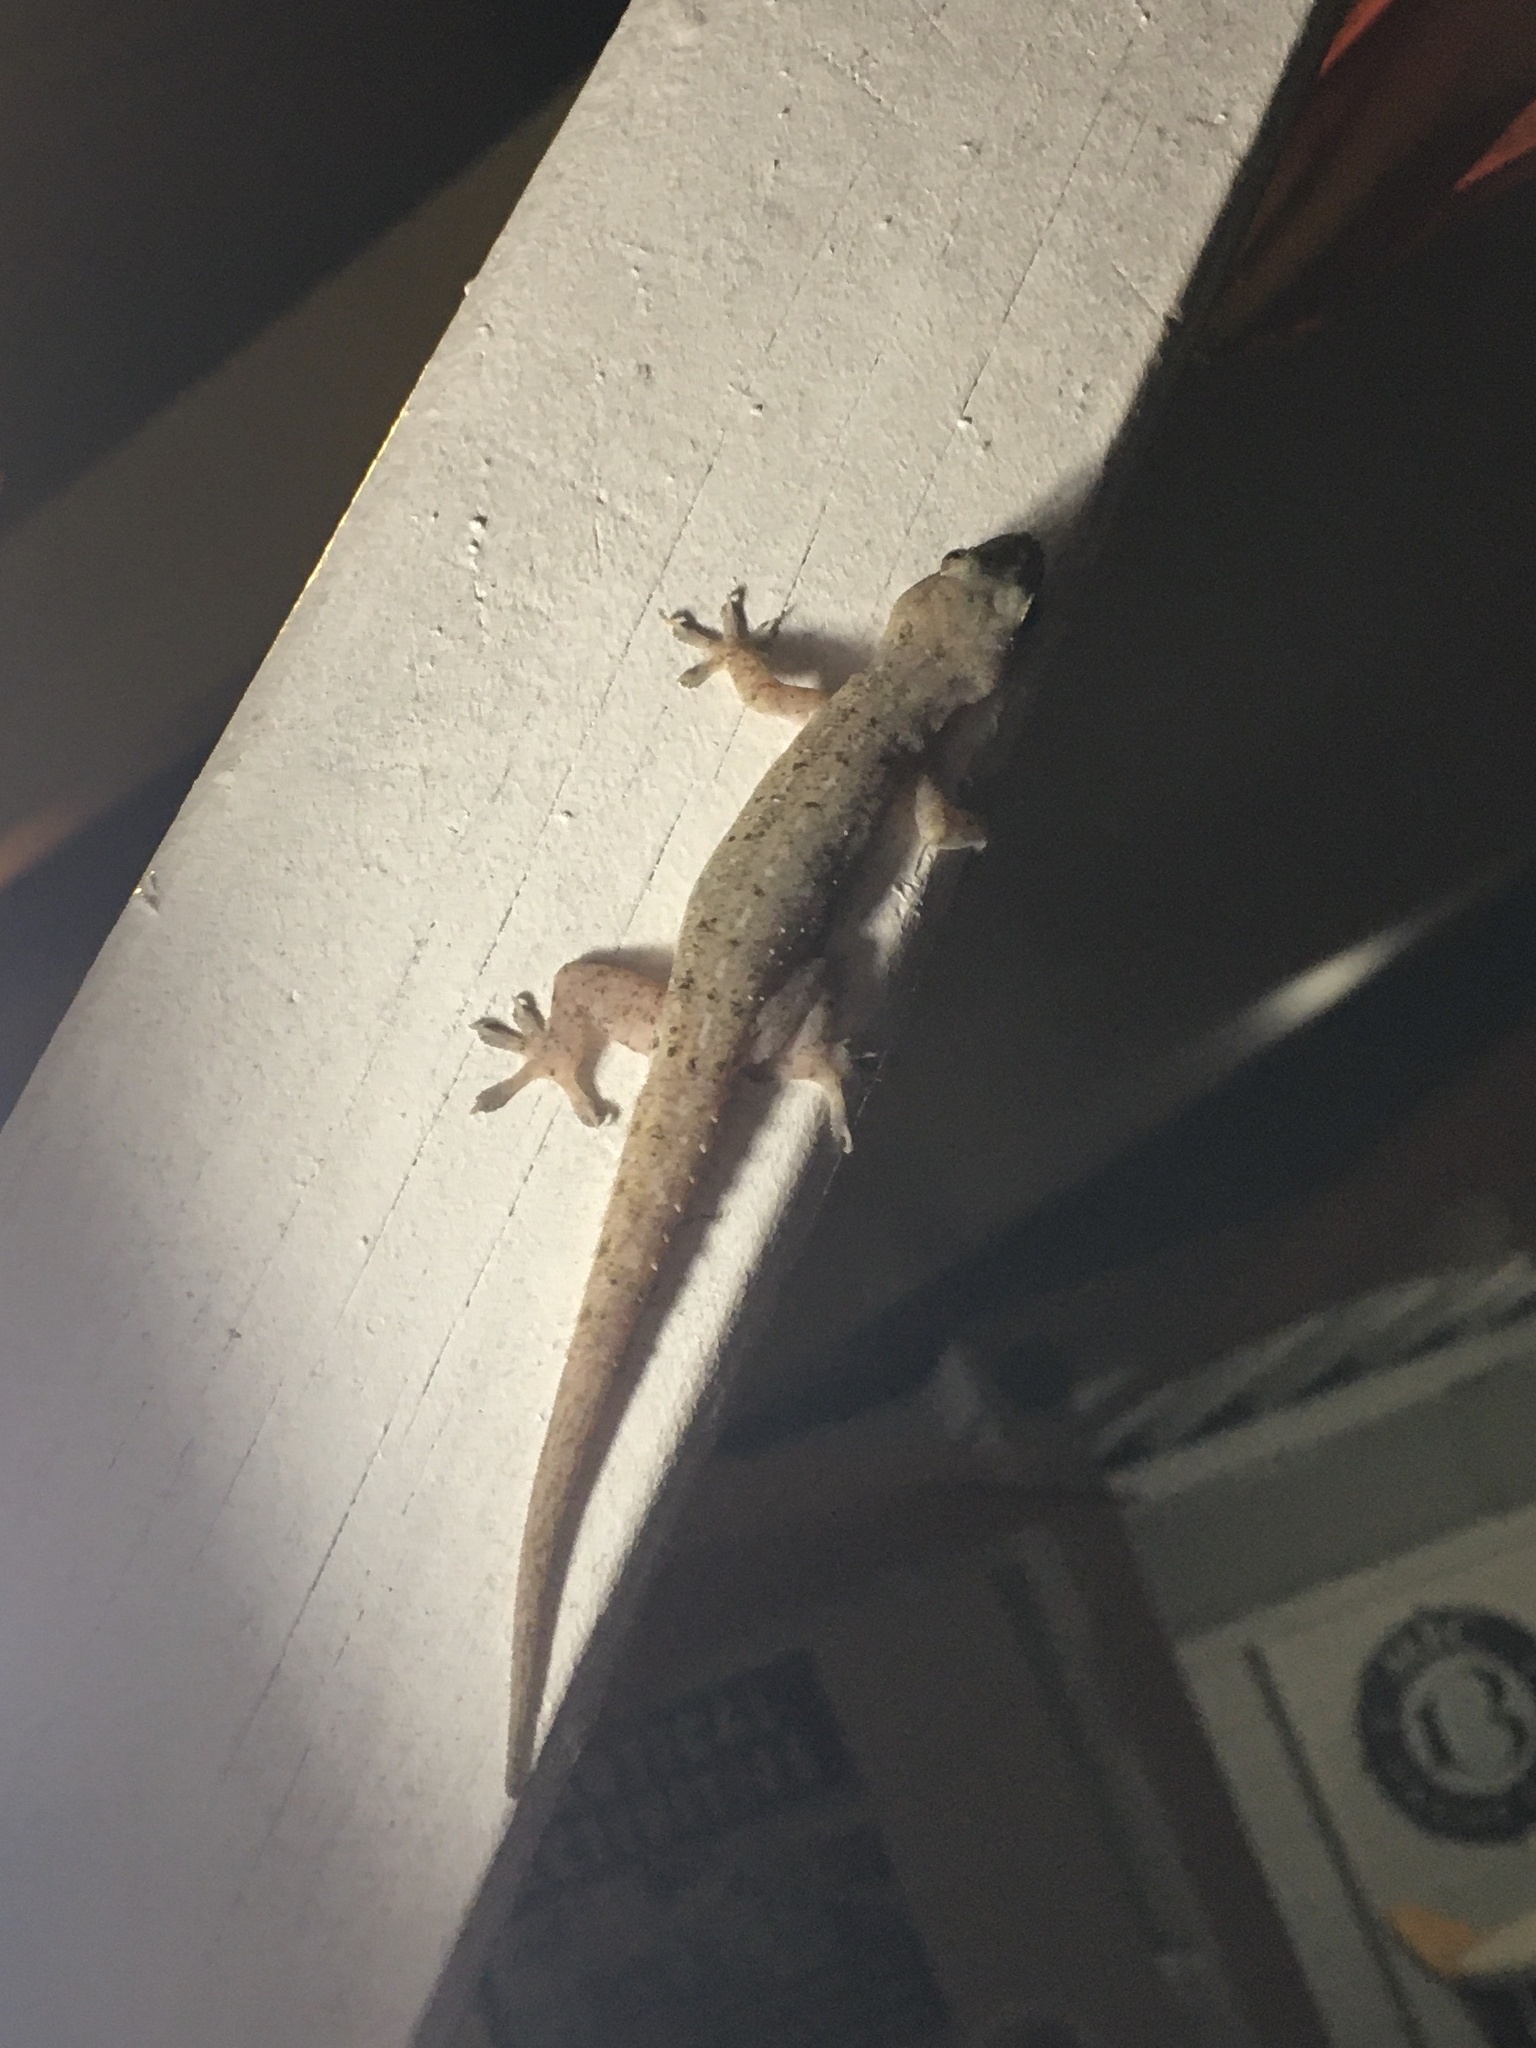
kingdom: Animalia
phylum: Chordata
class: Squamata
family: Gekkonidae
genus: Hemidactylus
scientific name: Hemidactylus frenatus
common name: Common house gecko
